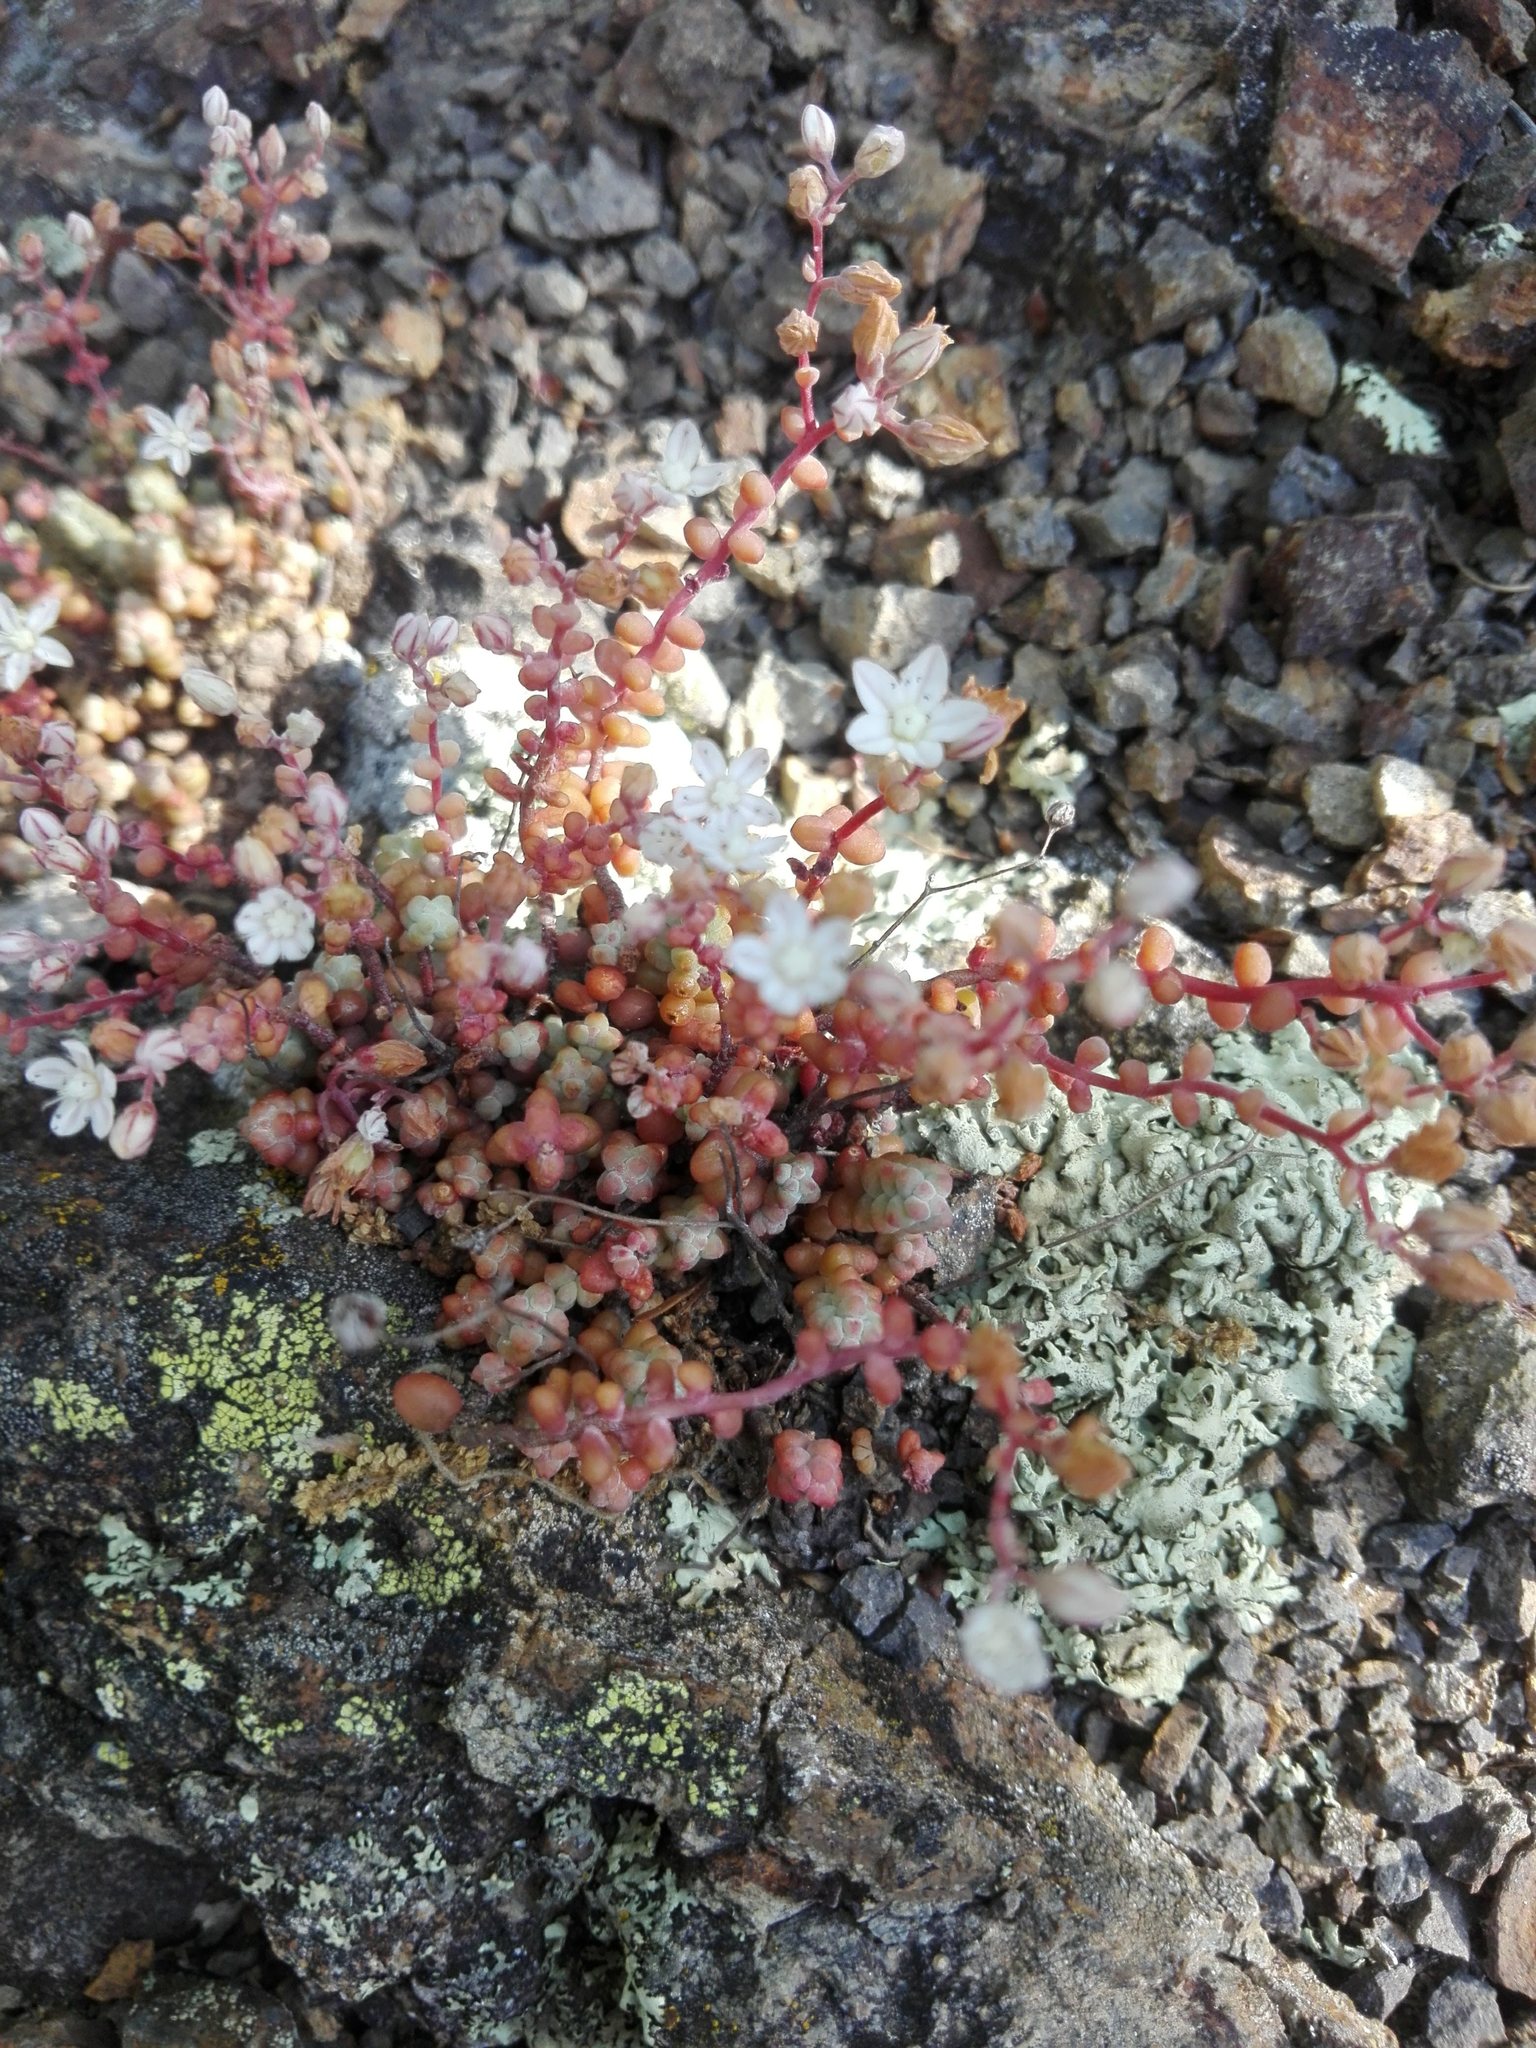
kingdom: Plantae
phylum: Tracheophyta
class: Magnoliopsida
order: Saxifragales
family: Crassulaceae
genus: Sedum
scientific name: Sedum brevifolium
